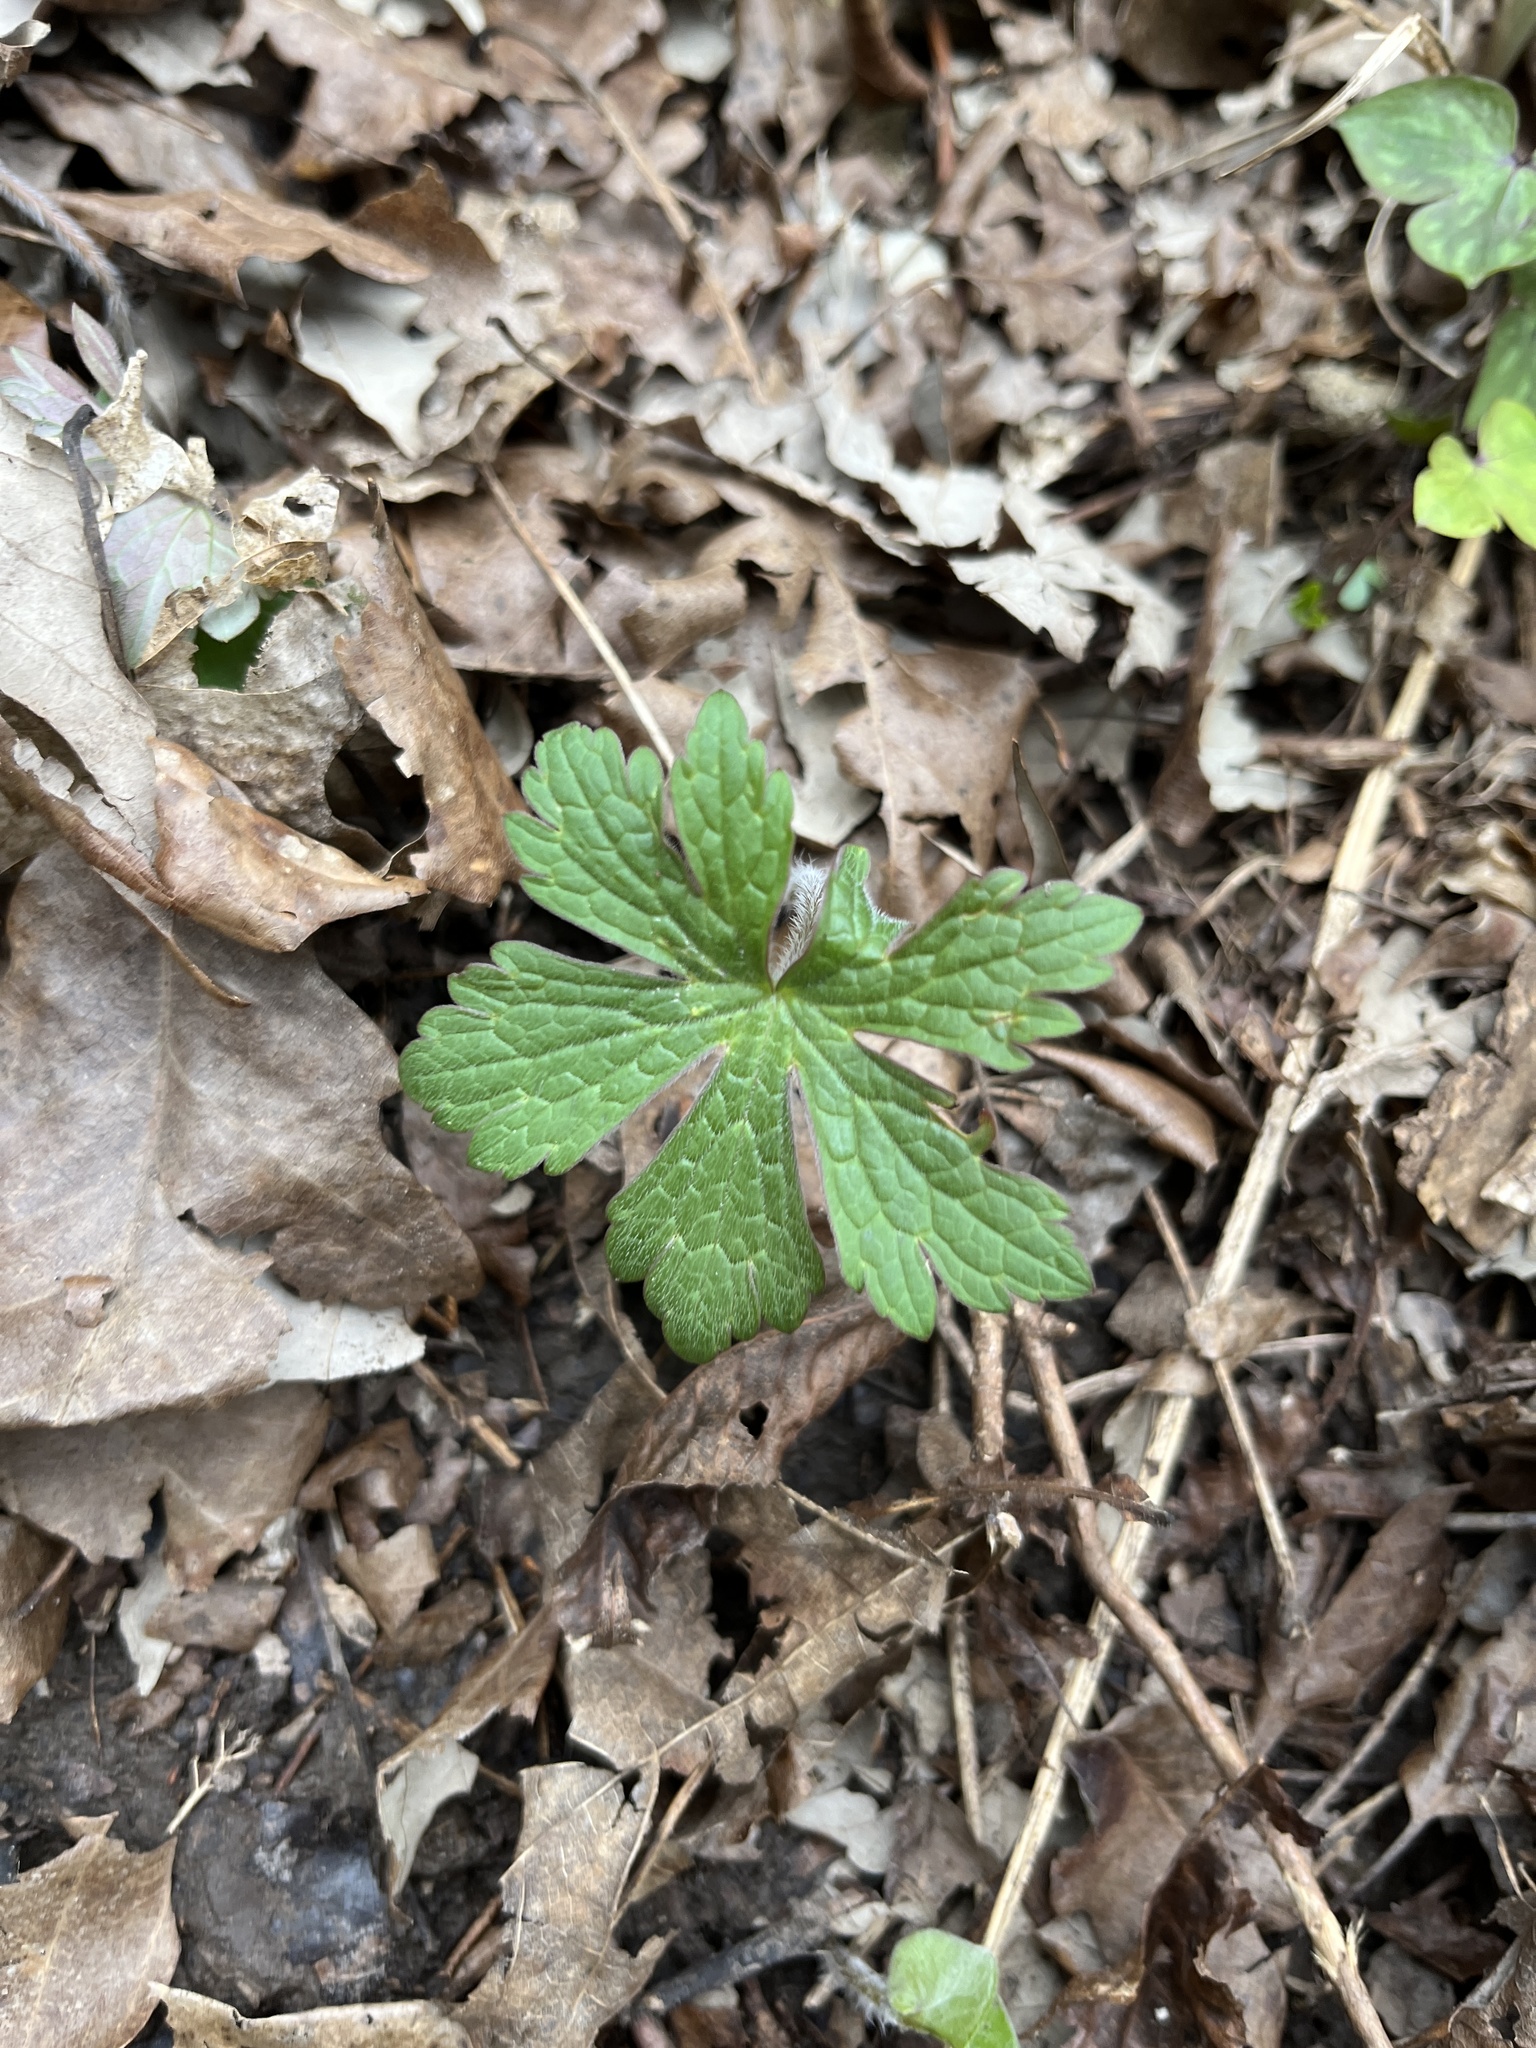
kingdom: Plantae
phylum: Tracheophyta
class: Magnoliopsida
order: Geraniales
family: Geraniaceae
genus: Geranium
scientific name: Geranium maculatum
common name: Spotted geranium
